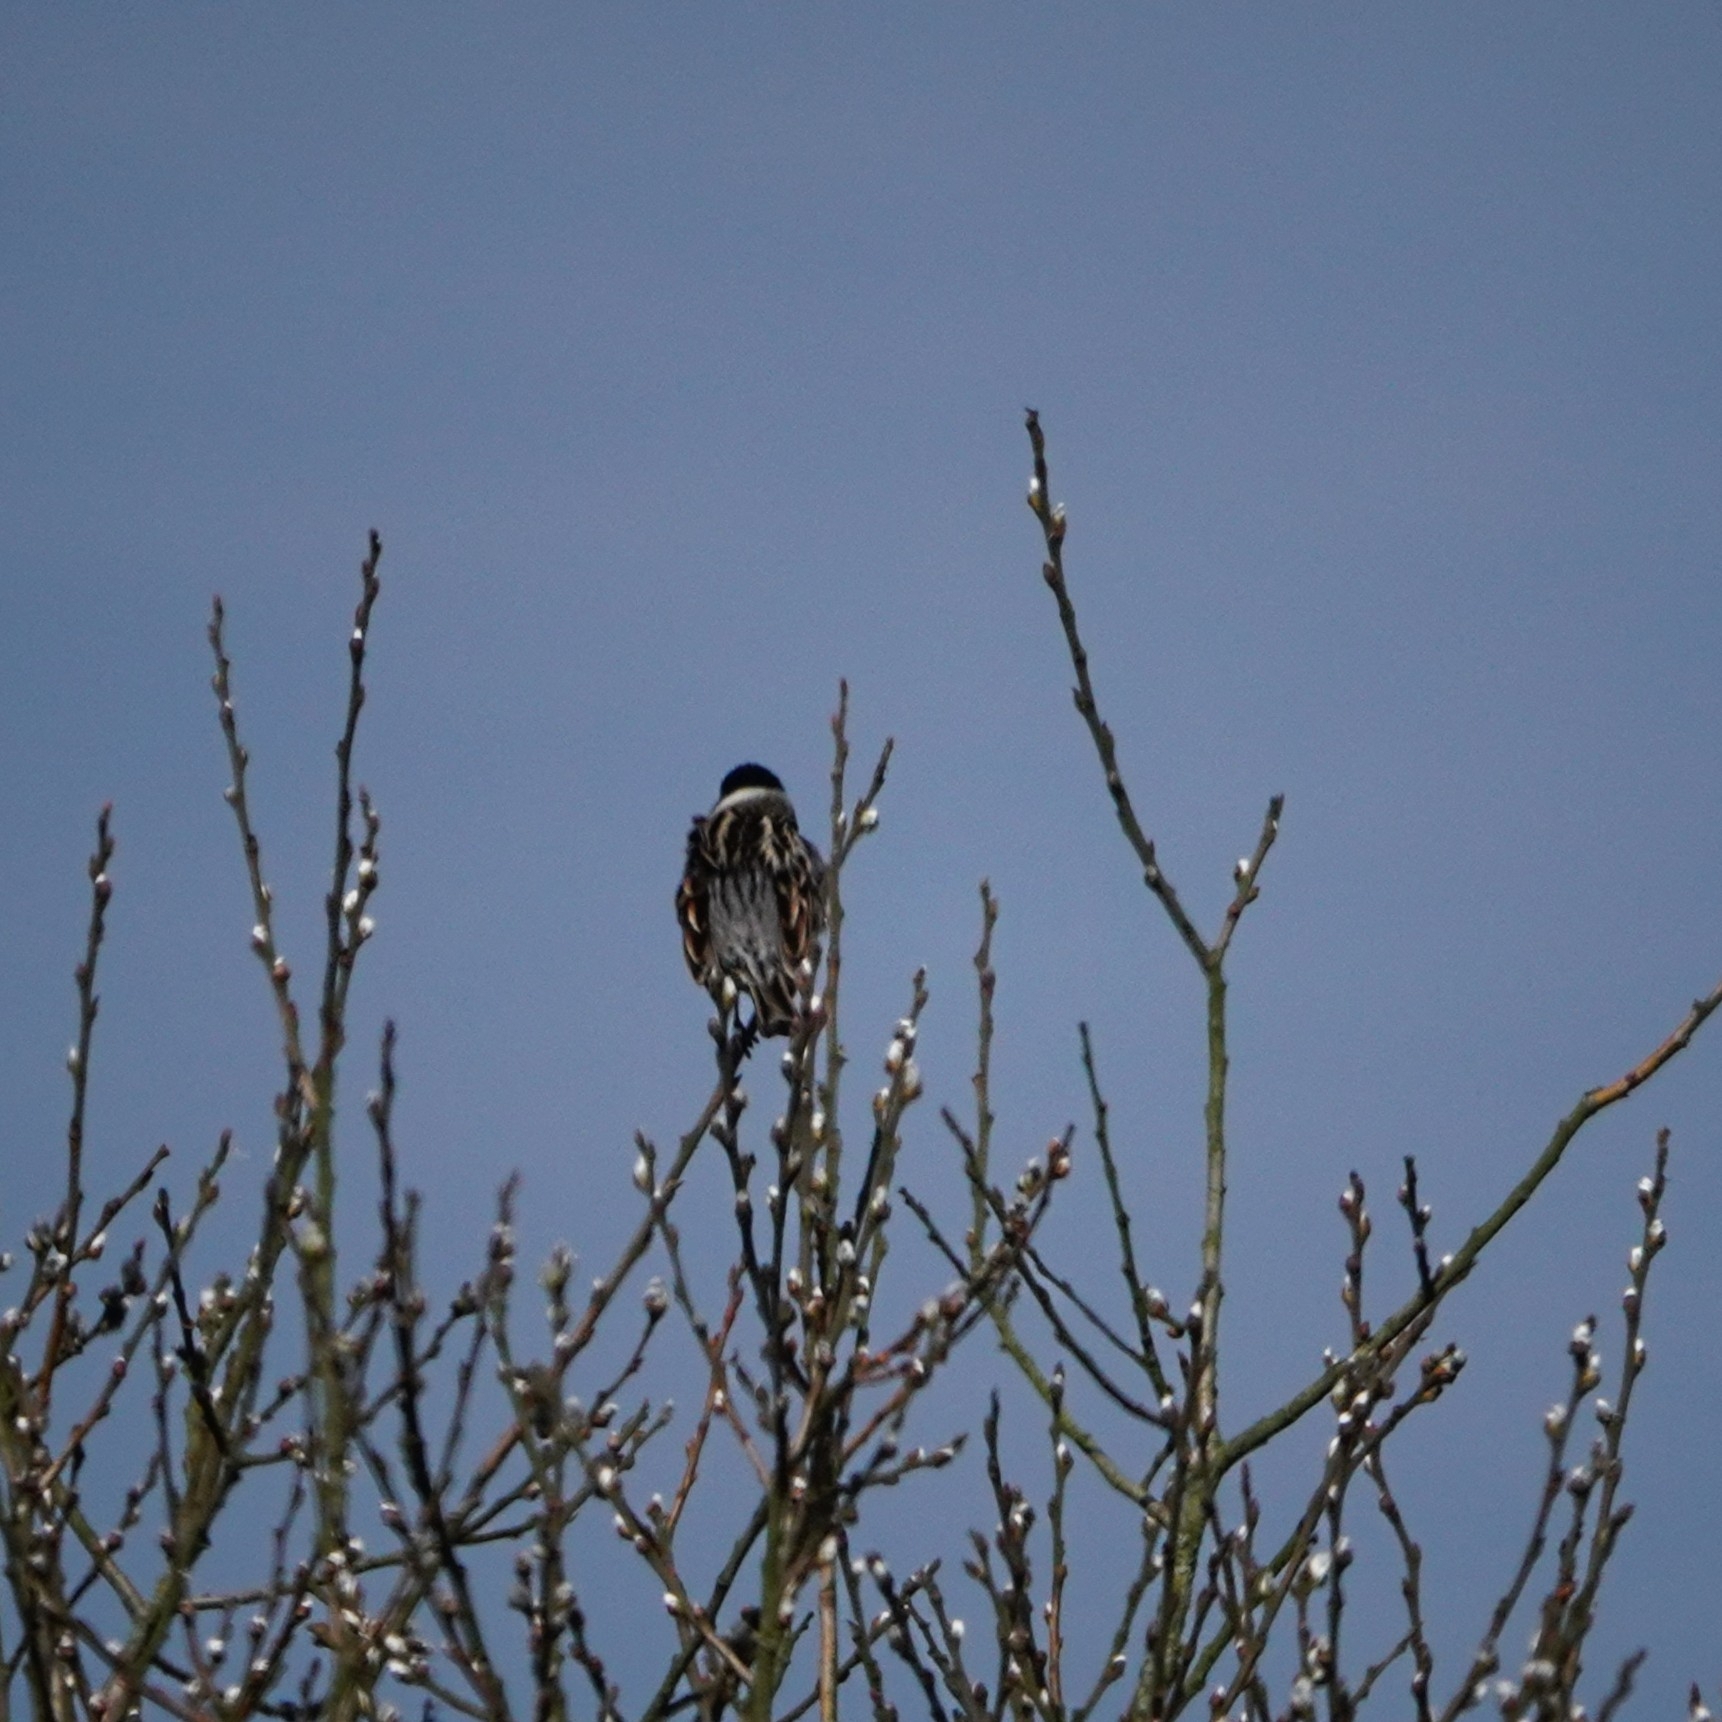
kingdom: Animalia
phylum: Chordata
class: Aves
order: Passeriformes
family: Emberizidae
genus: Emberiza
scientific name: Emberiza schoeniclus
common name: Reed bunting
